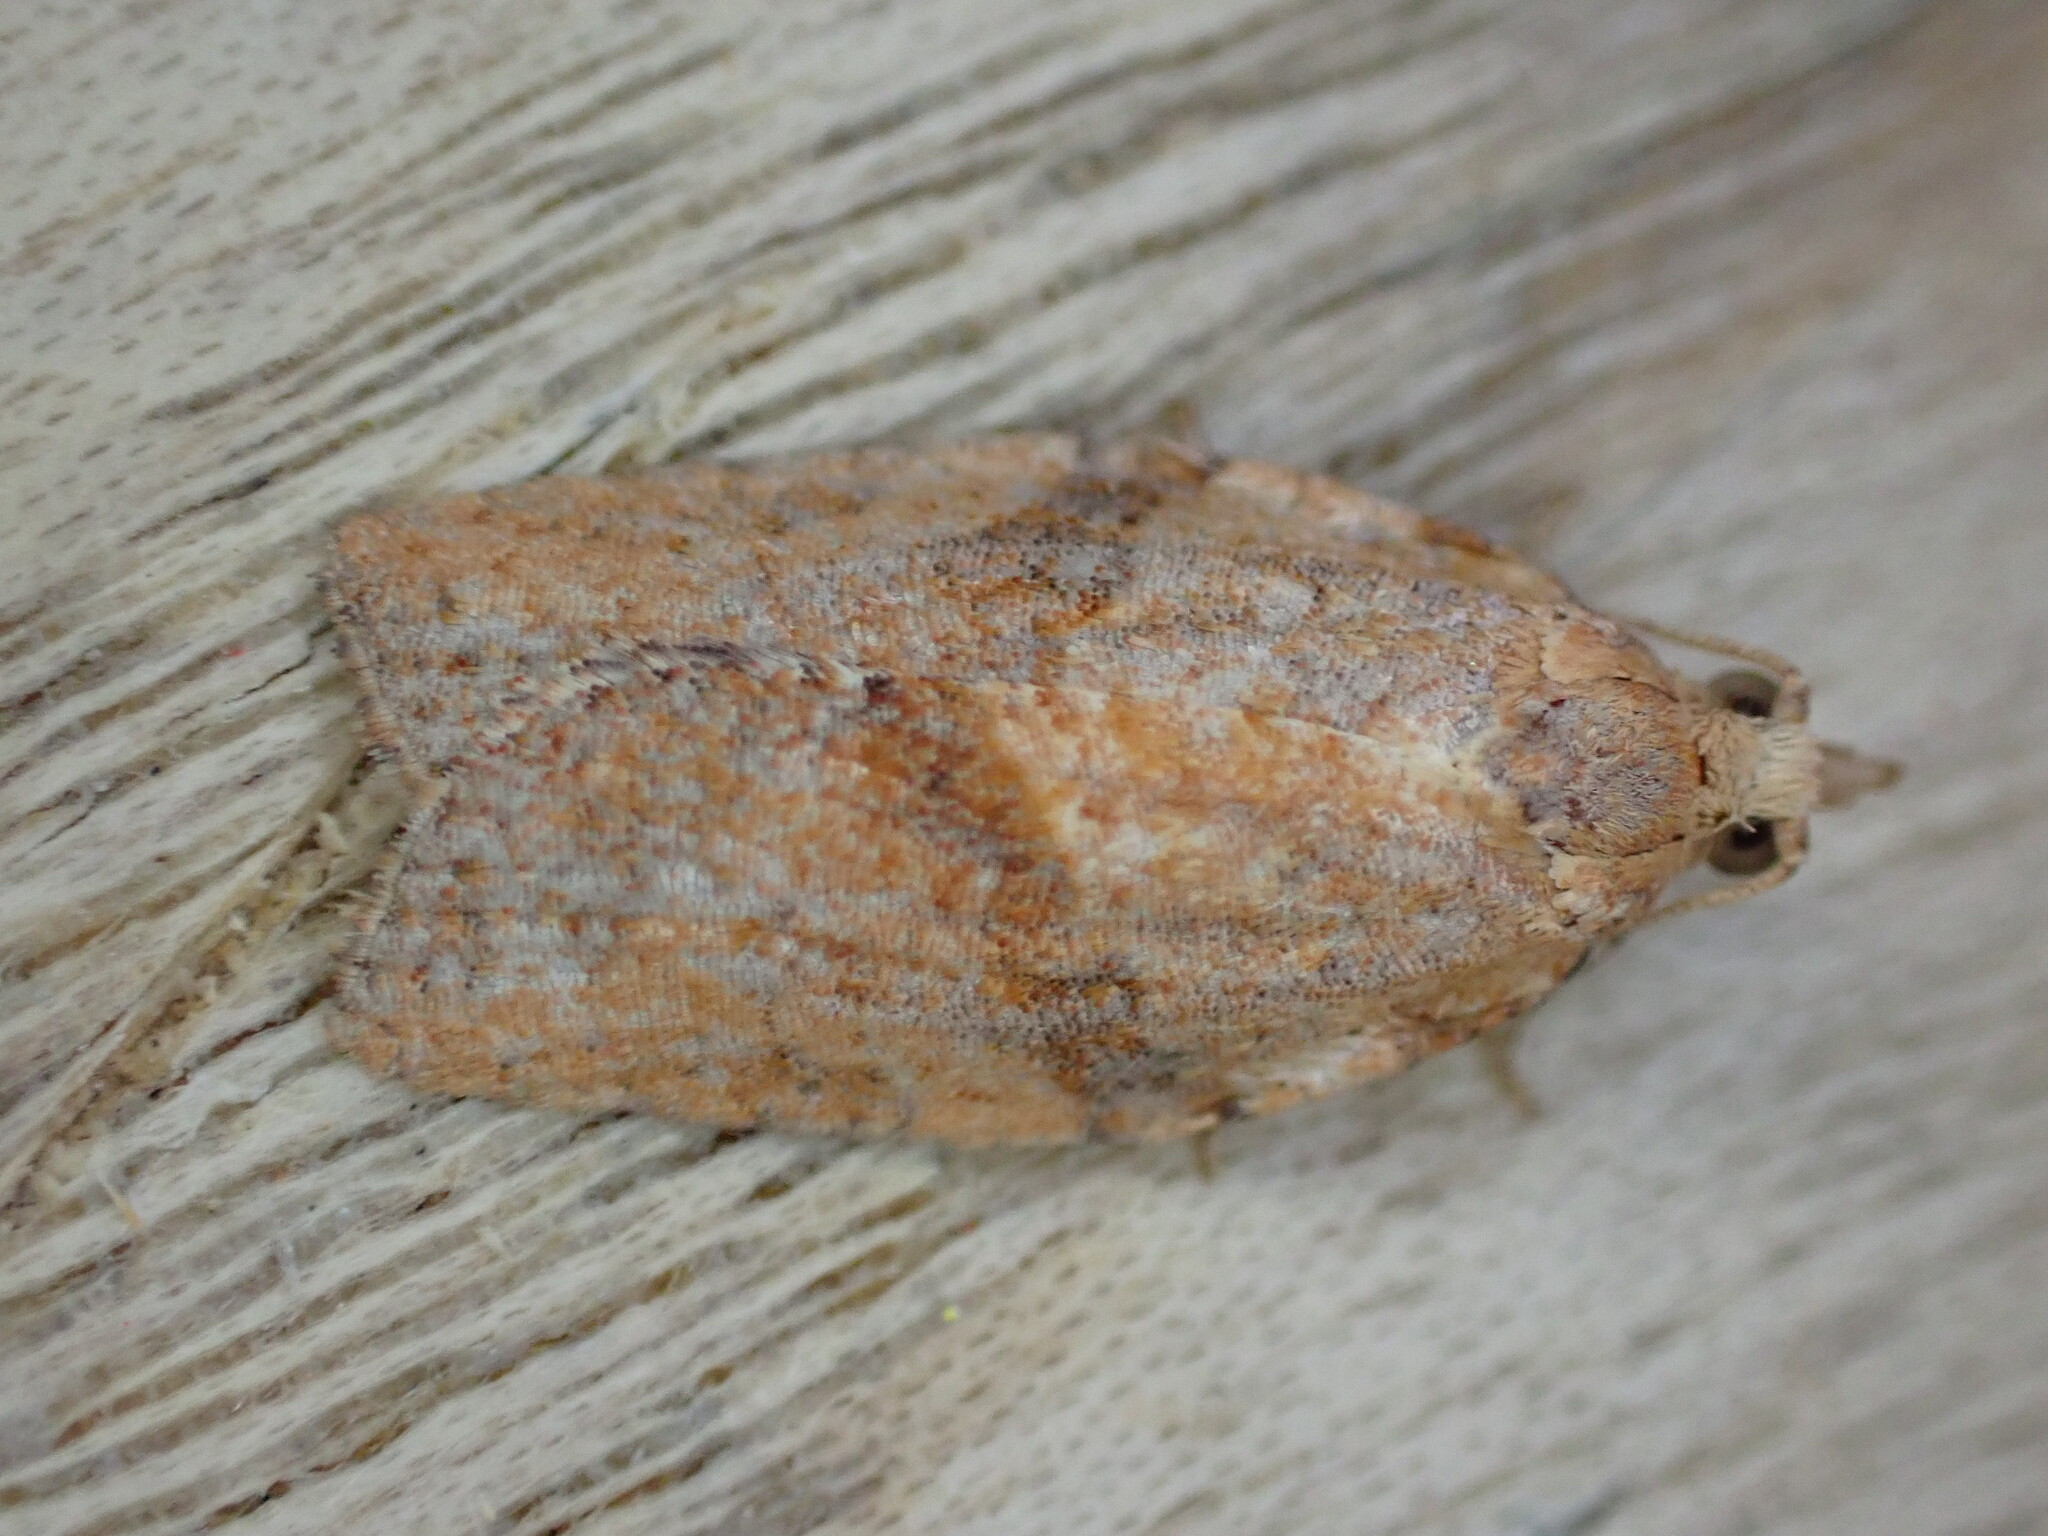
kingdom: Animalia
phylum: Arthropoda
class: Insecta
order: Lepidoptera
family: Tortricidae
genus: Epiphyas
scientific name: Epiphyas postvittana
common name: Light brown apple moth
